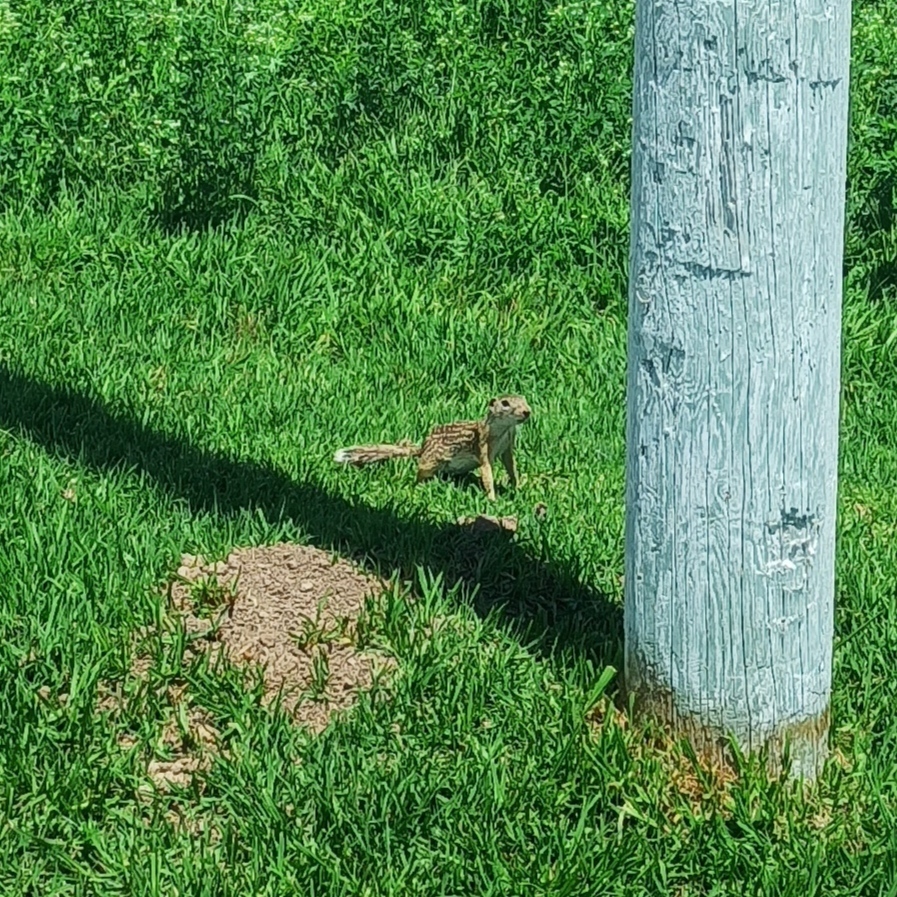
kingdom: Animalia
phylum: Chordata
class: Mammalia
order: Rodentia
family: Sciuridae
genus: Ictidomys
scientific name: Ictidomys mexicanus
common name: Mexican ground squirrel
